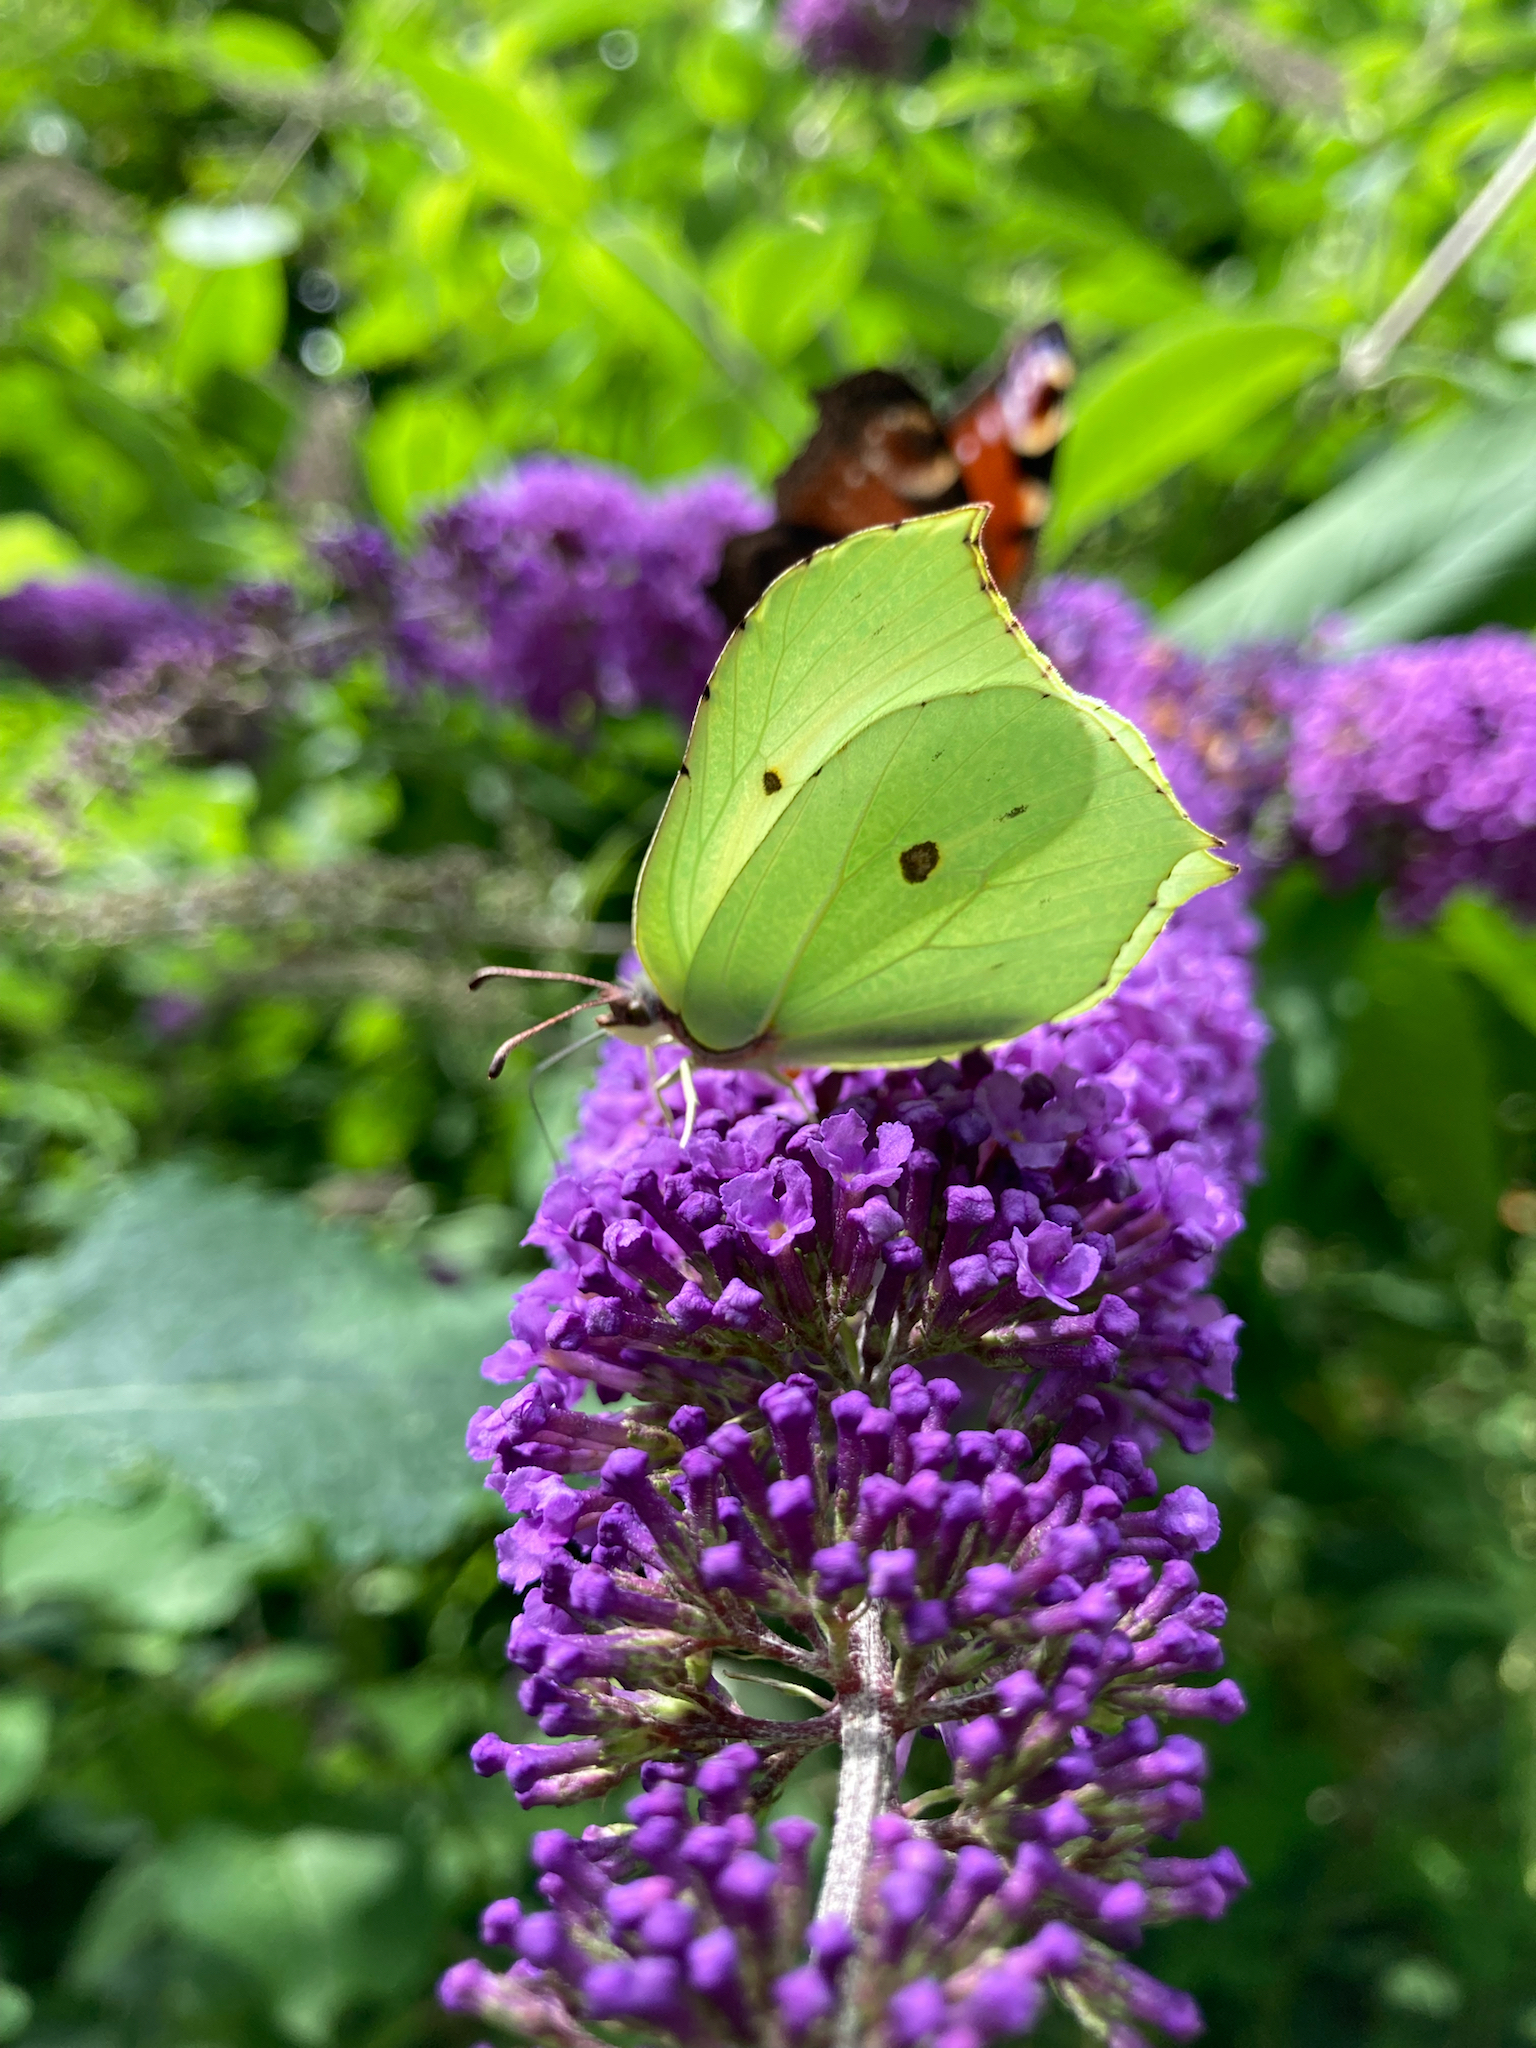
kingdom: Animalia
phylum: Arthropoda
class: Insecta
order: Lepidoptera
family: Pieridae
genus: Gonepteryx
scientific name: Gonepteryx rhamni
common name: Brimstone
